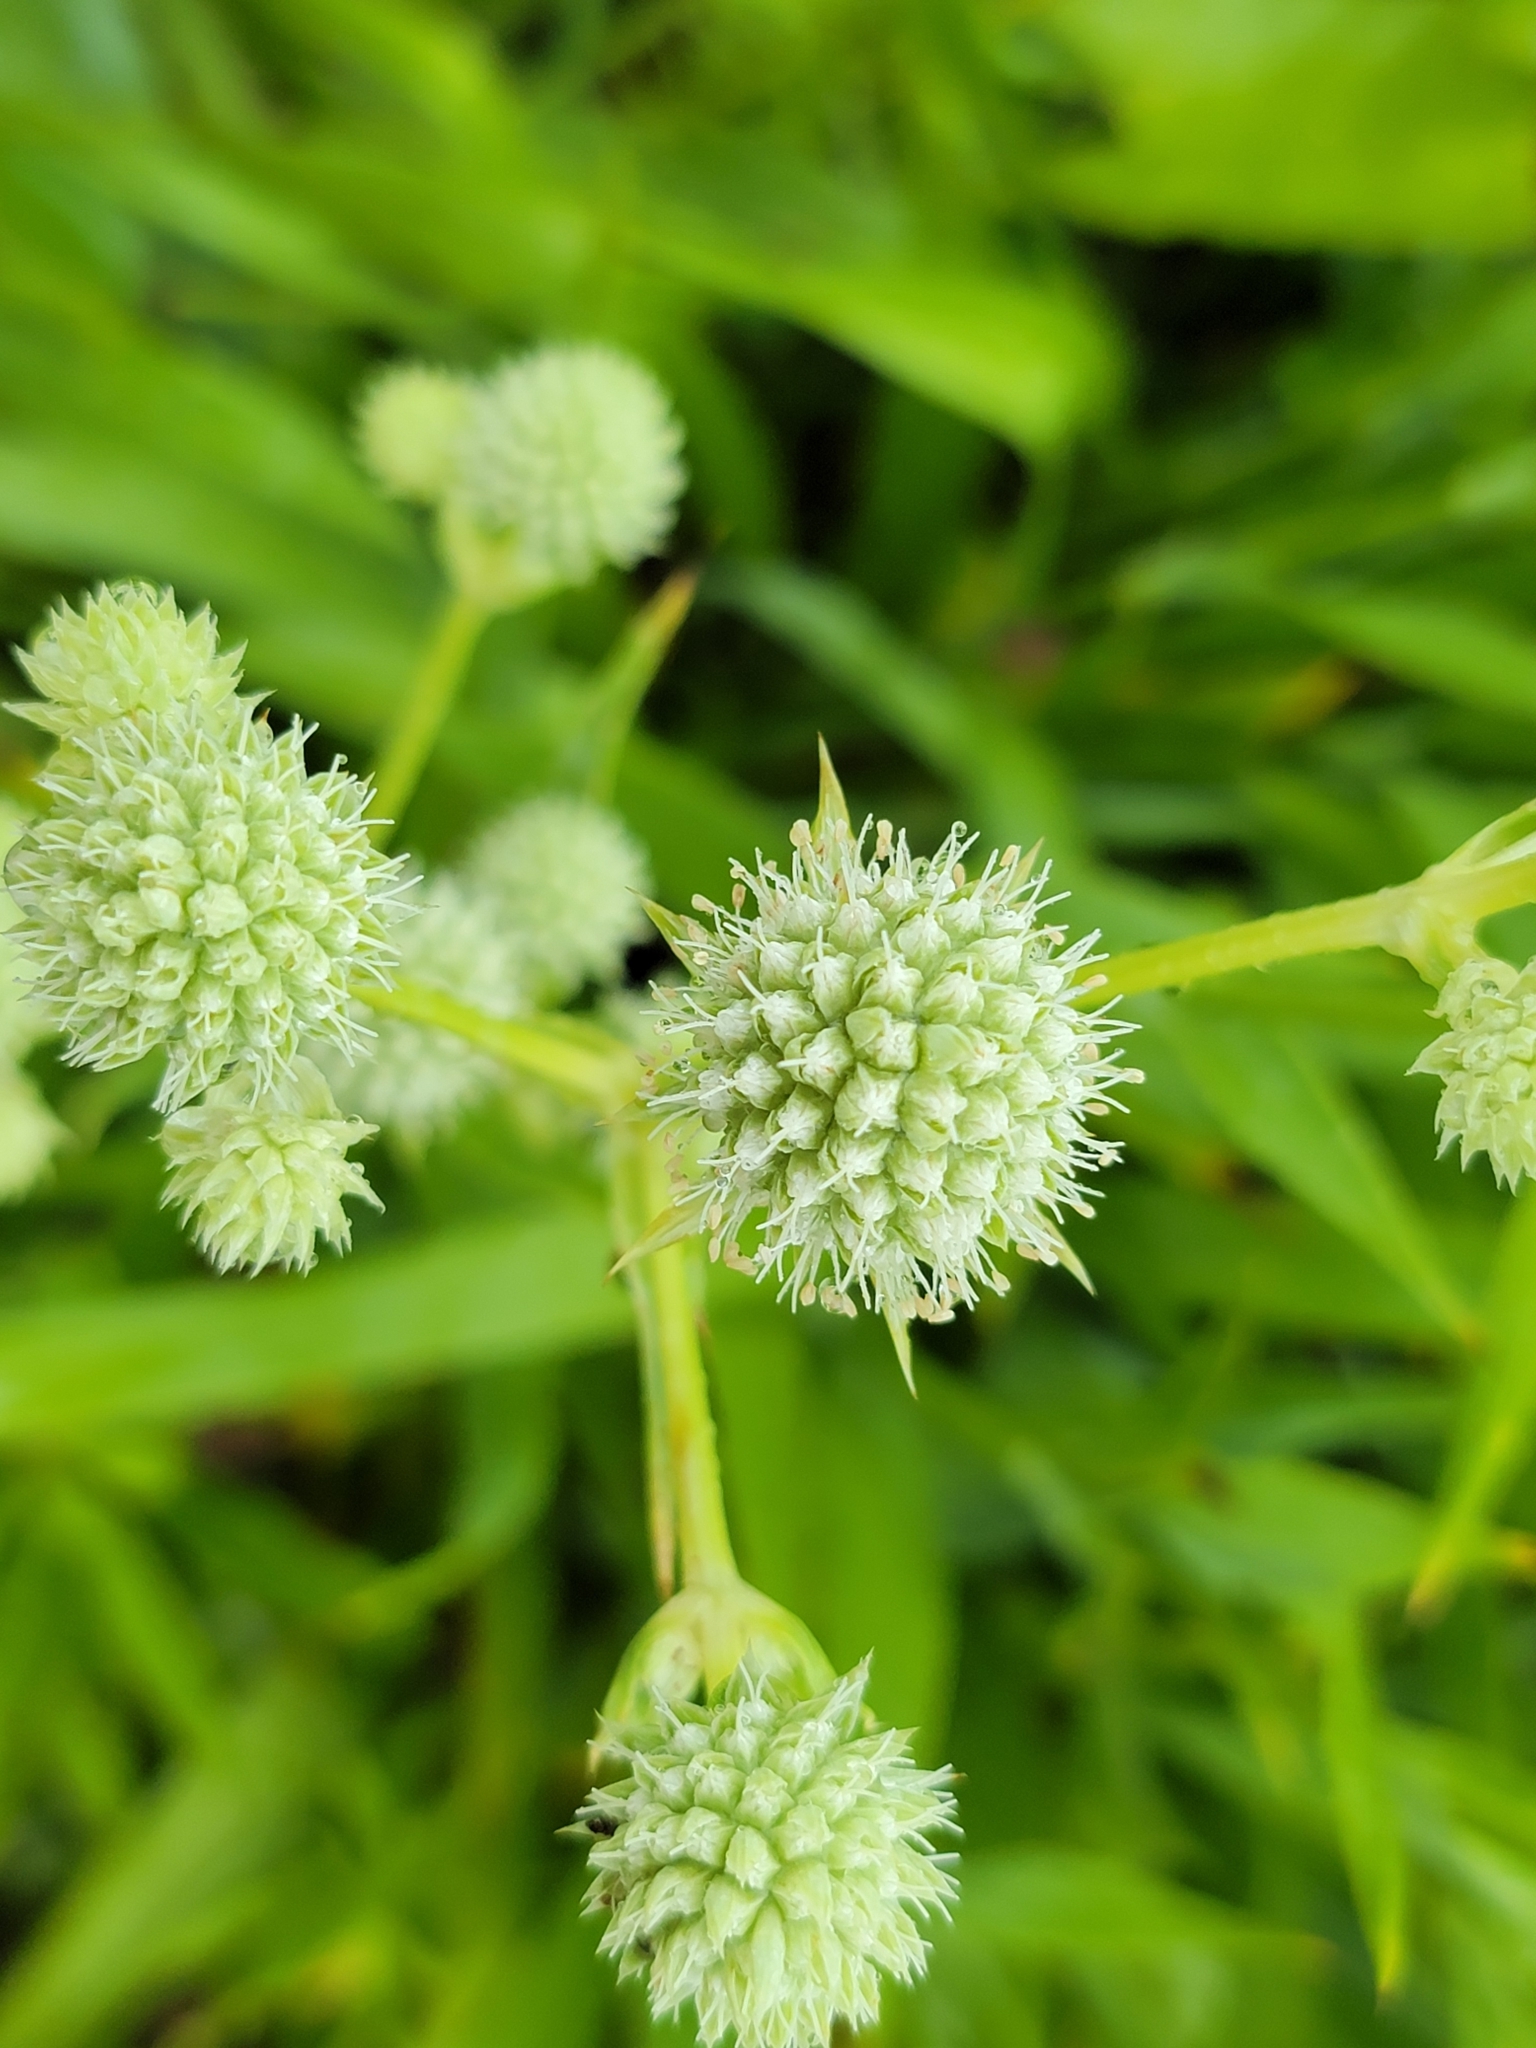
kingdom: Plantae
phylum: Tracheophyta
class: Magnoliopsida
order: Apiales
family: Apiaceae
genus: Eryngium
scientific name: Eryngium yuccifolium
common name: Button eryngo
